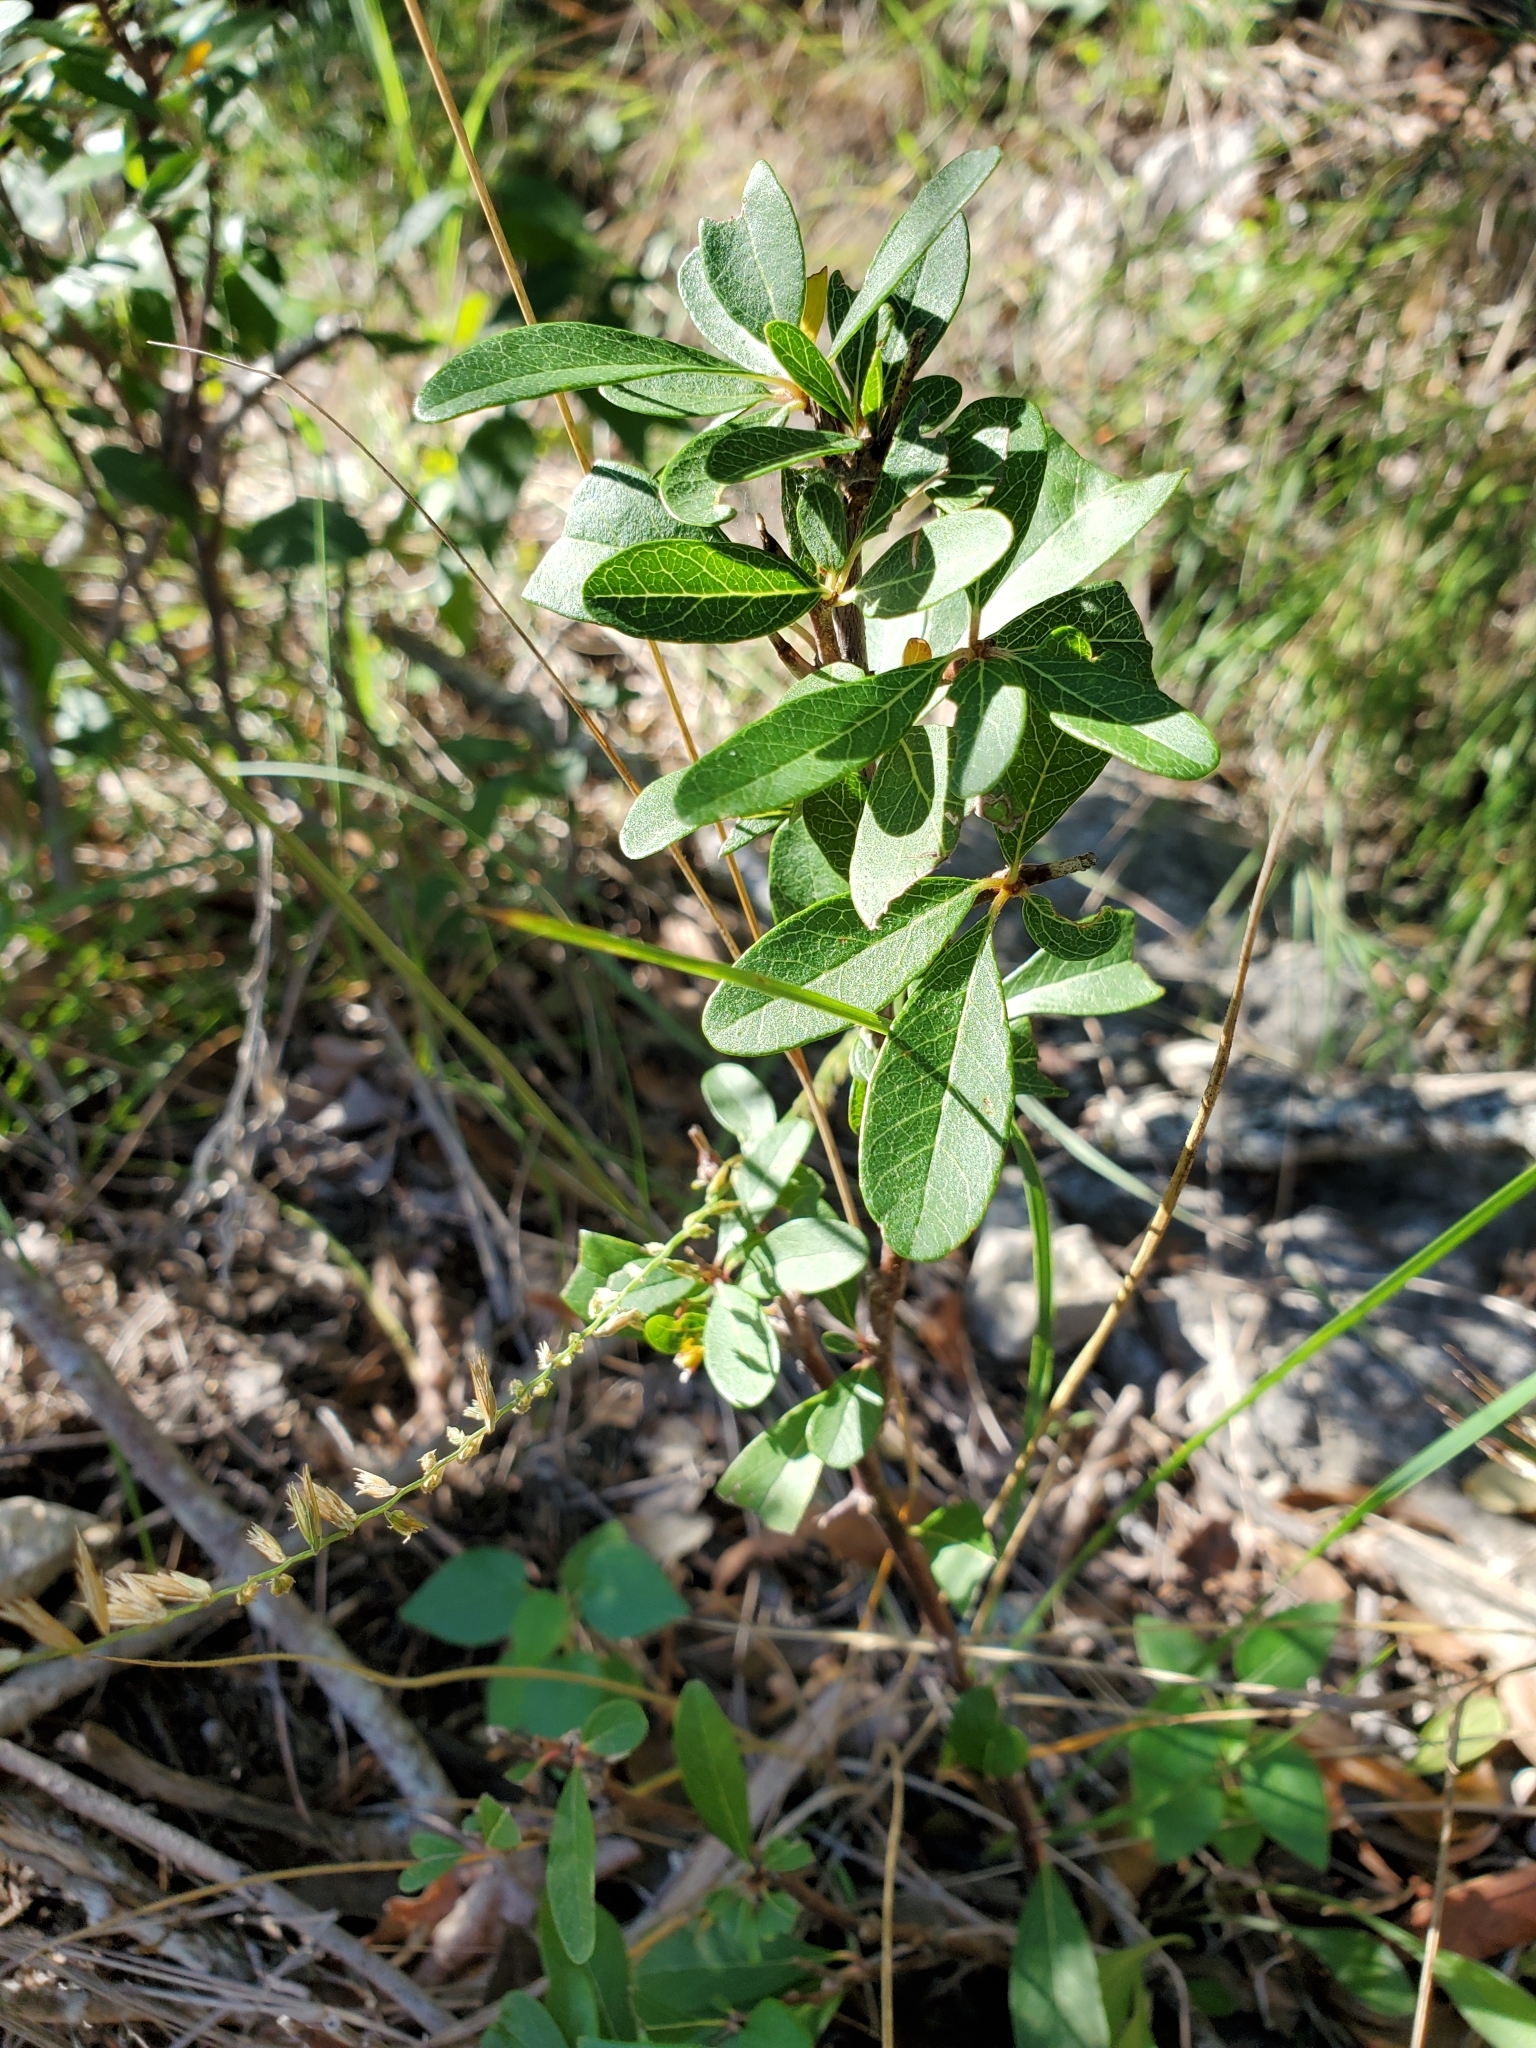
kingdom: Plantae
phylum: Tracheophyta
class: Magnoliopsida
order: Ericales
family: Sapotaceae
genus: Sideroxylon
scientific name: Sideroxylon lanuginosum
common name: Chittamwood
